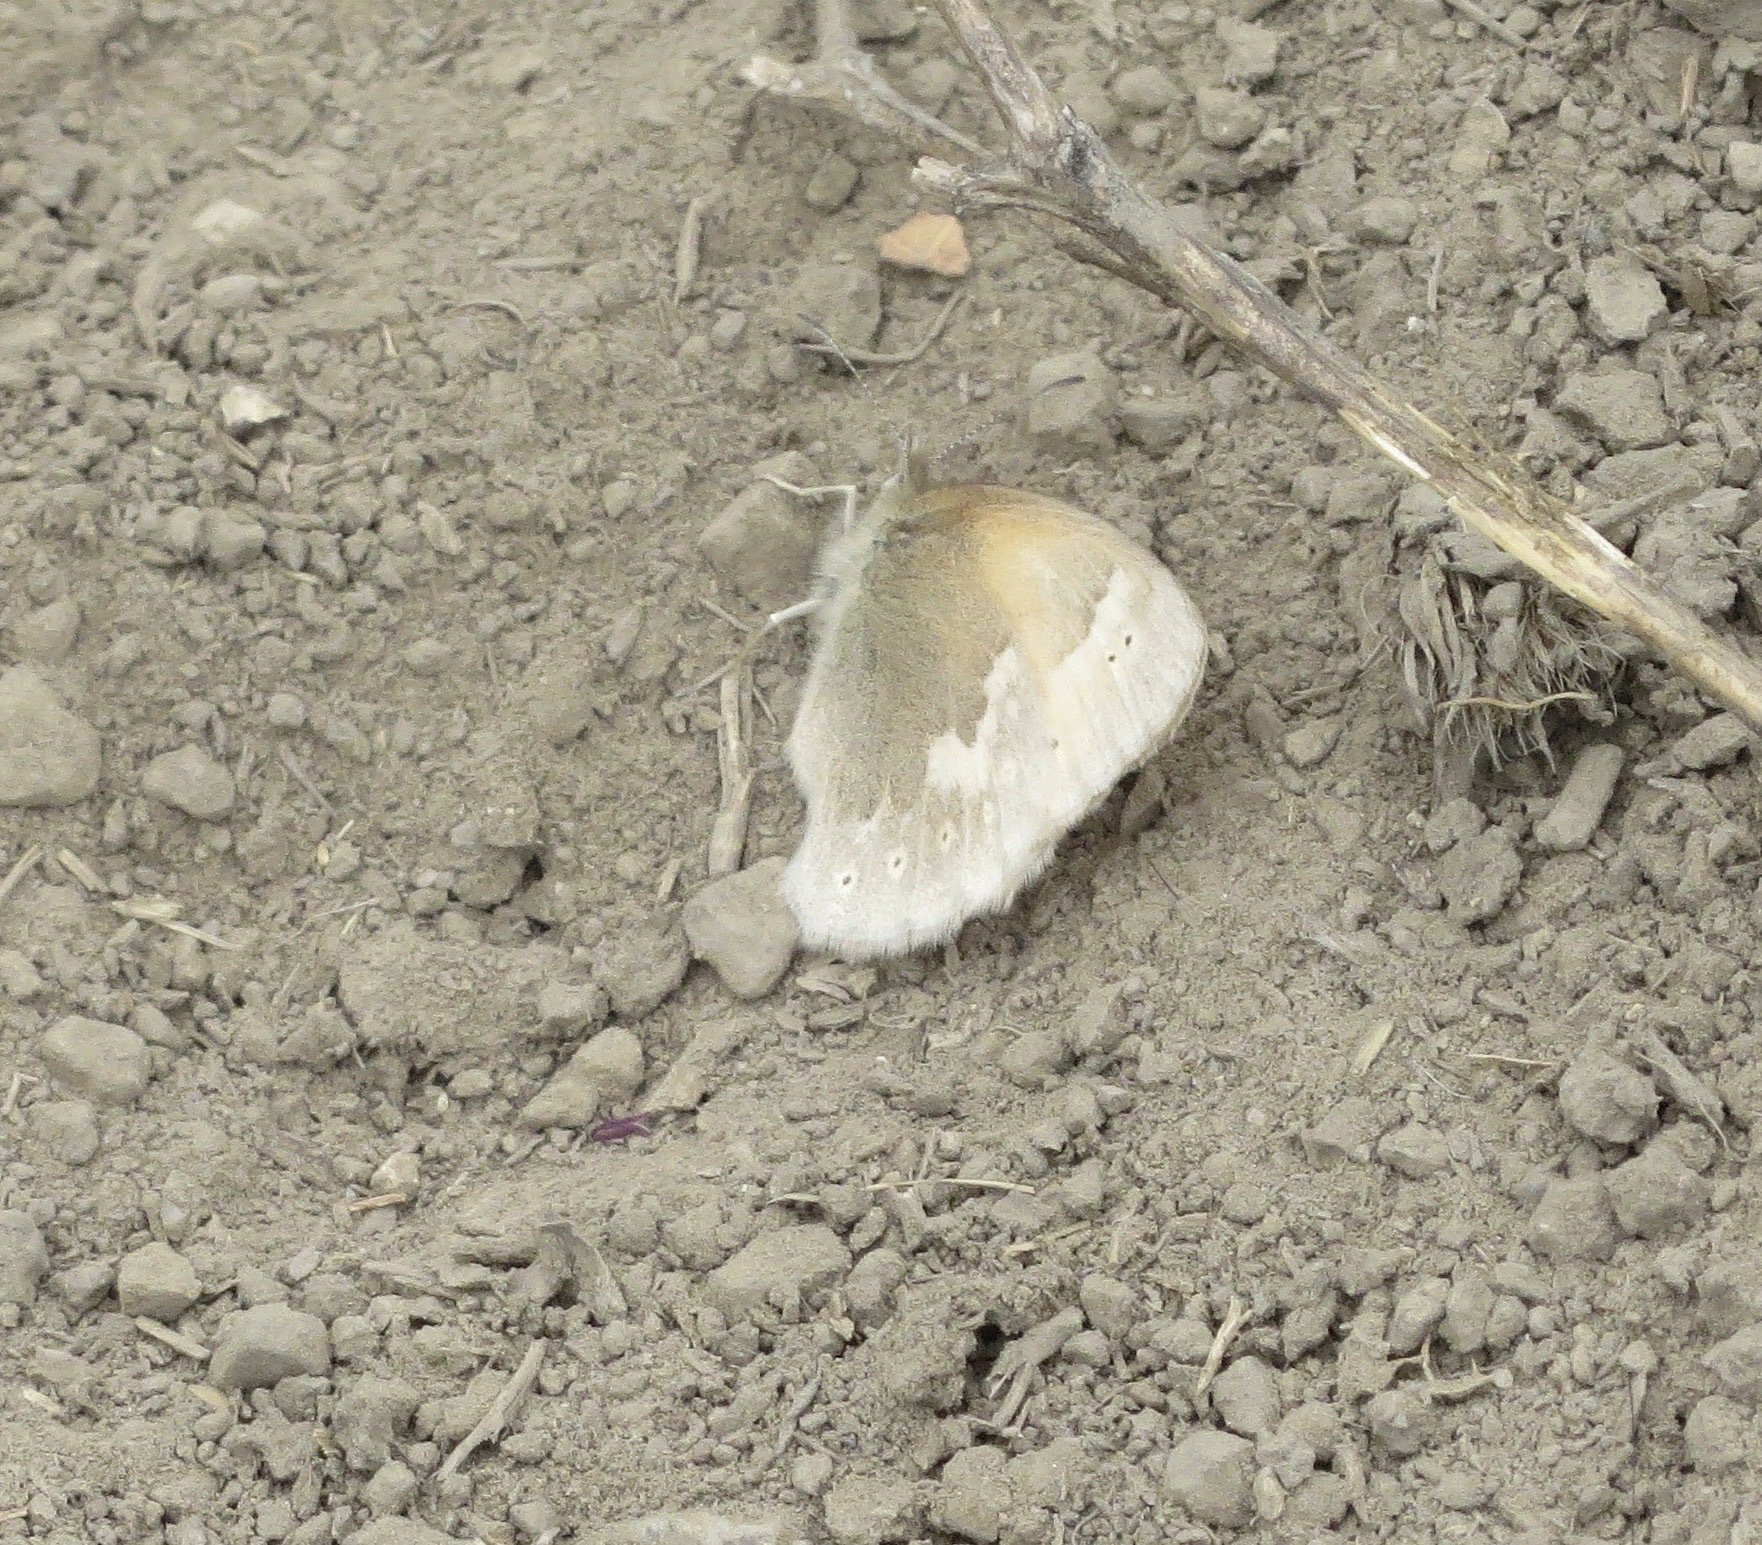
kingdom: Animalia
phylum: Arthropoda
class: Insecta
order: Lepidoptera
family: Nymphalidae
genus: Coenonympha
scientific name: Coenonympha california
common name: Common ringlet
